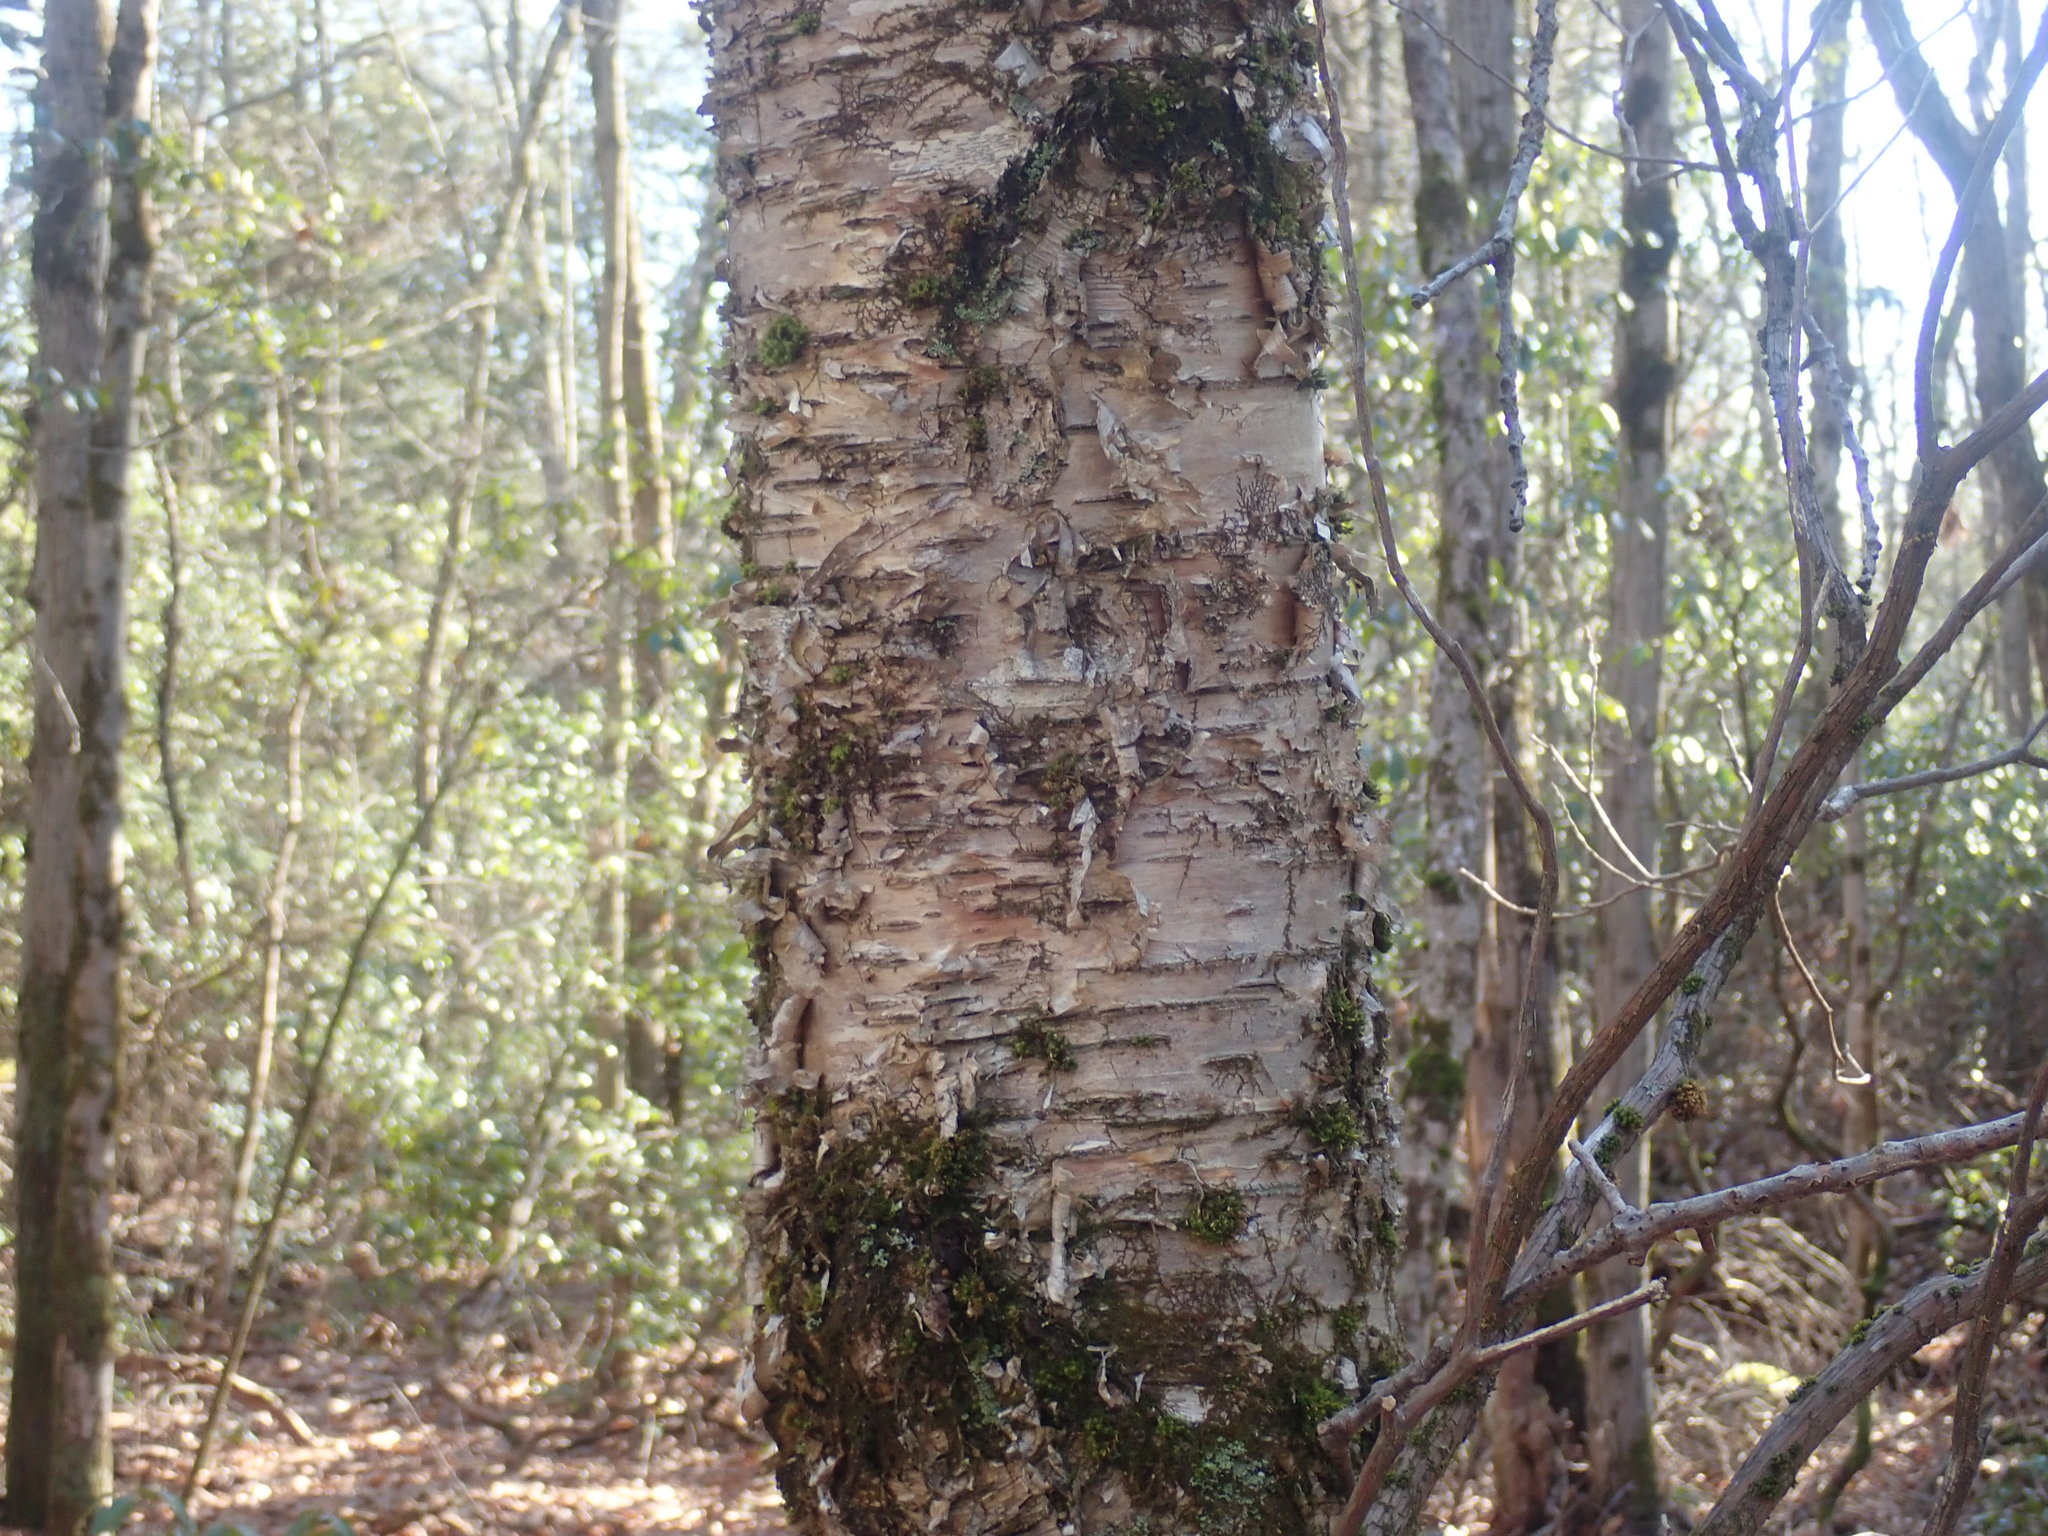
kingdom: Plantae
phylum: Tracheophyta
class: Magnoliopsida
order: Fagales
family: Betulaceae
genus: Betula
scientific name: Betula alleghaniensis
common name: Yellow birch
